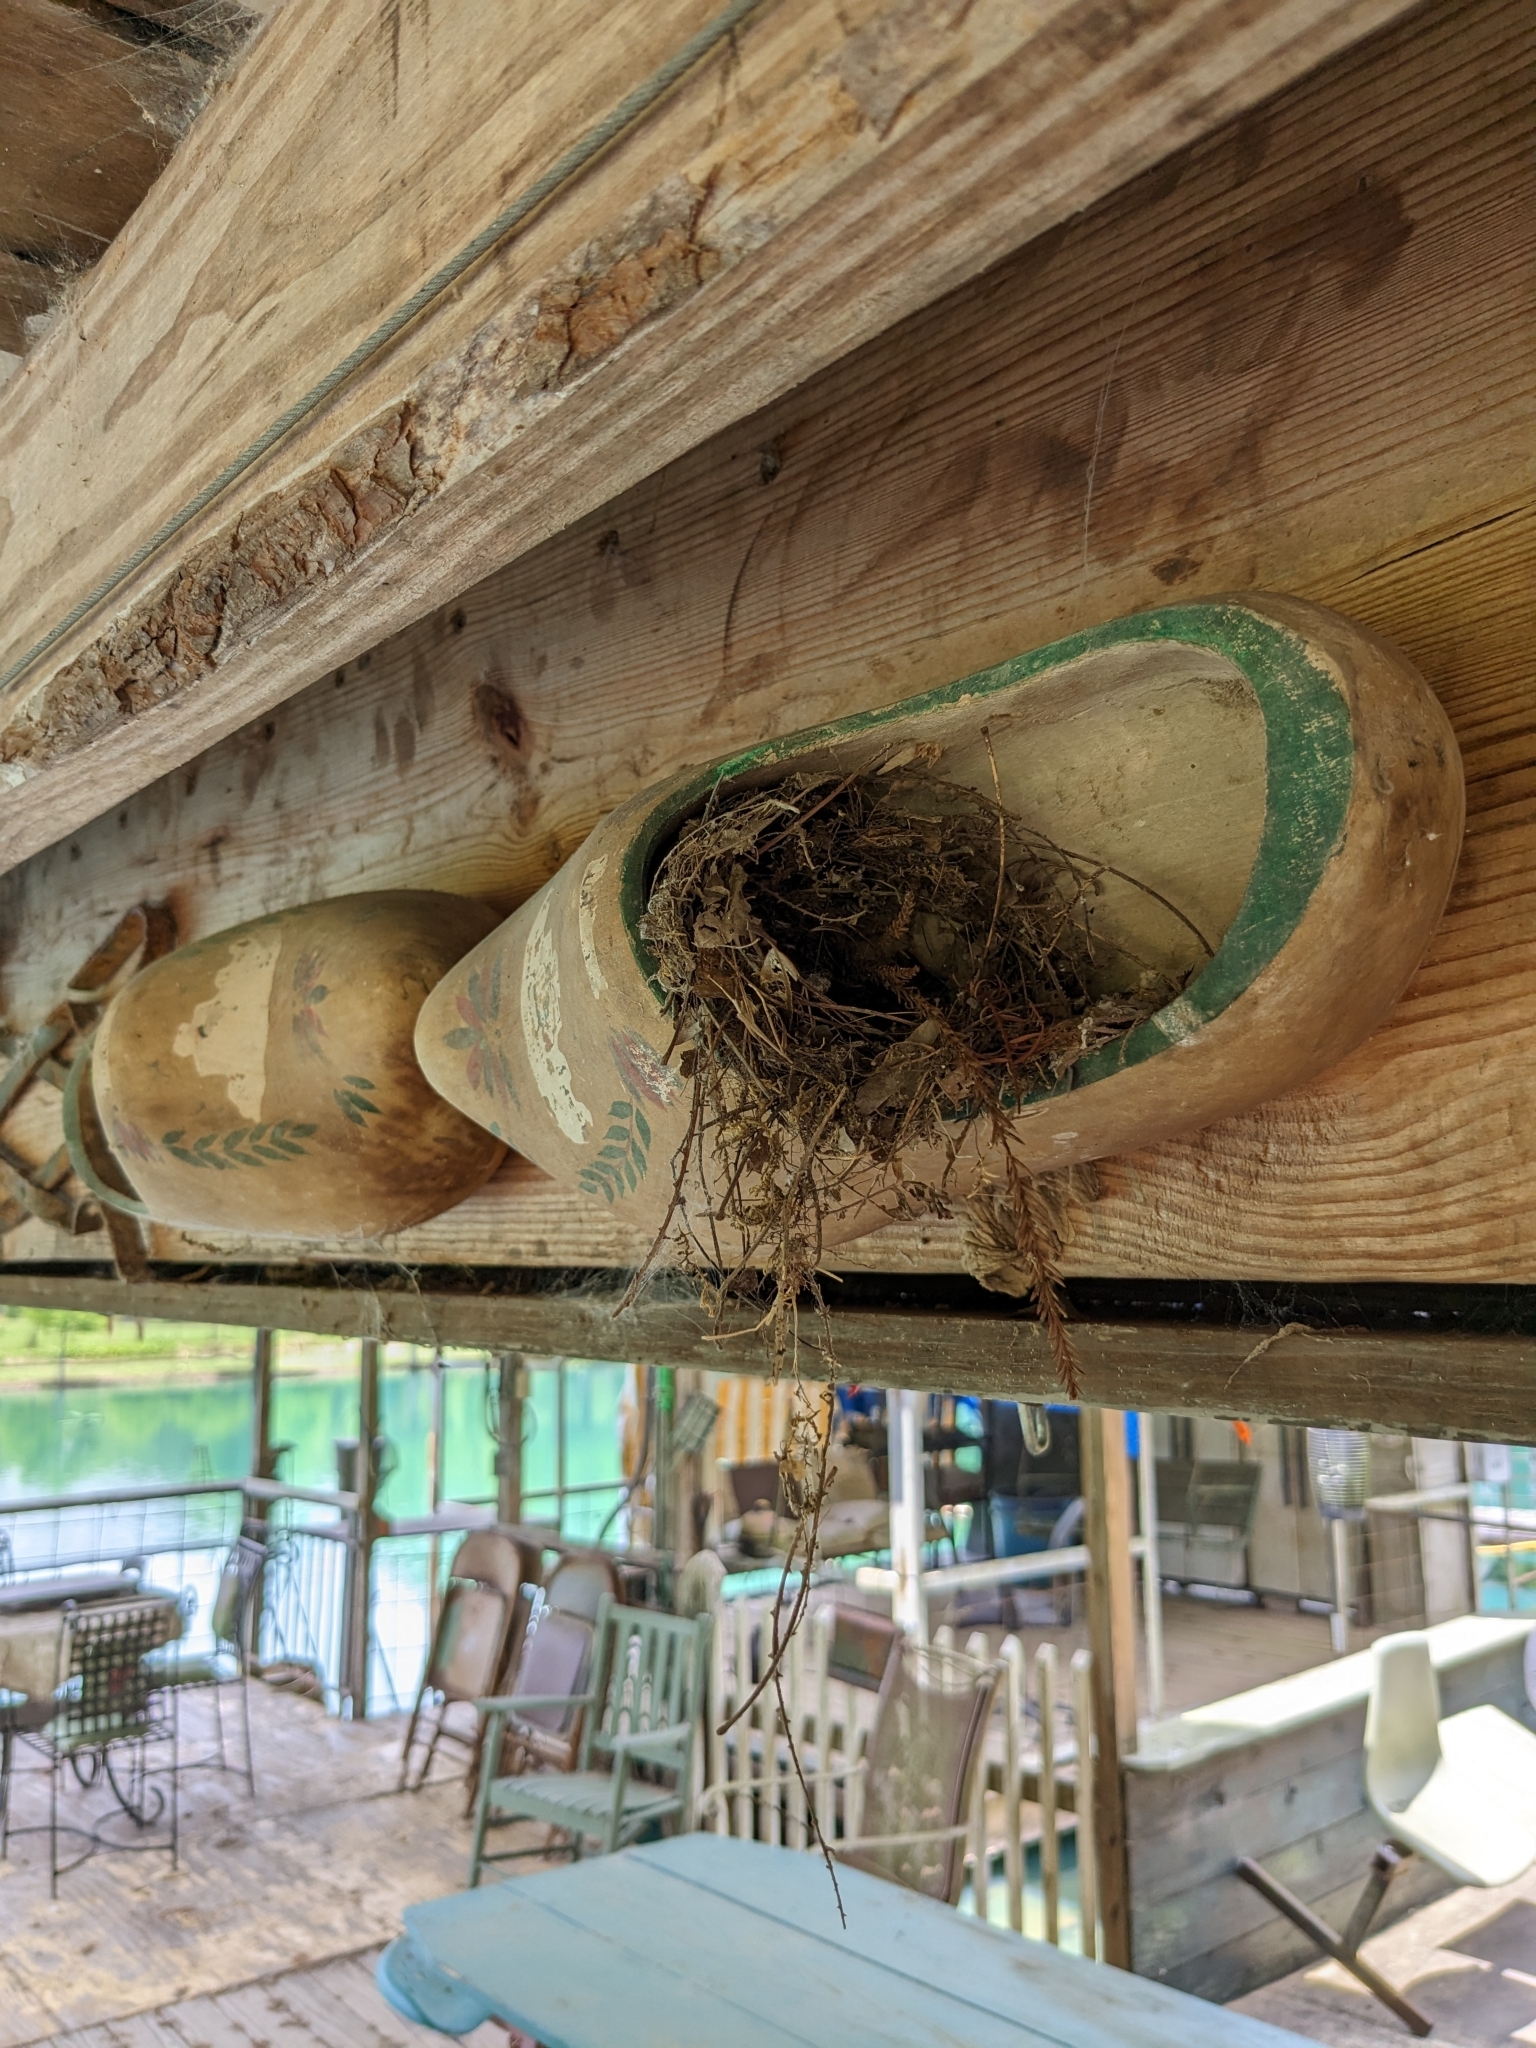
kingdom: Animalia
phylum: Chordata
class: Aves
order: Passeriformes
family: Troglodytidae
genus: Thryothorus
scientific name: Thryothorus ludovicianus
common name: Carolina wren
